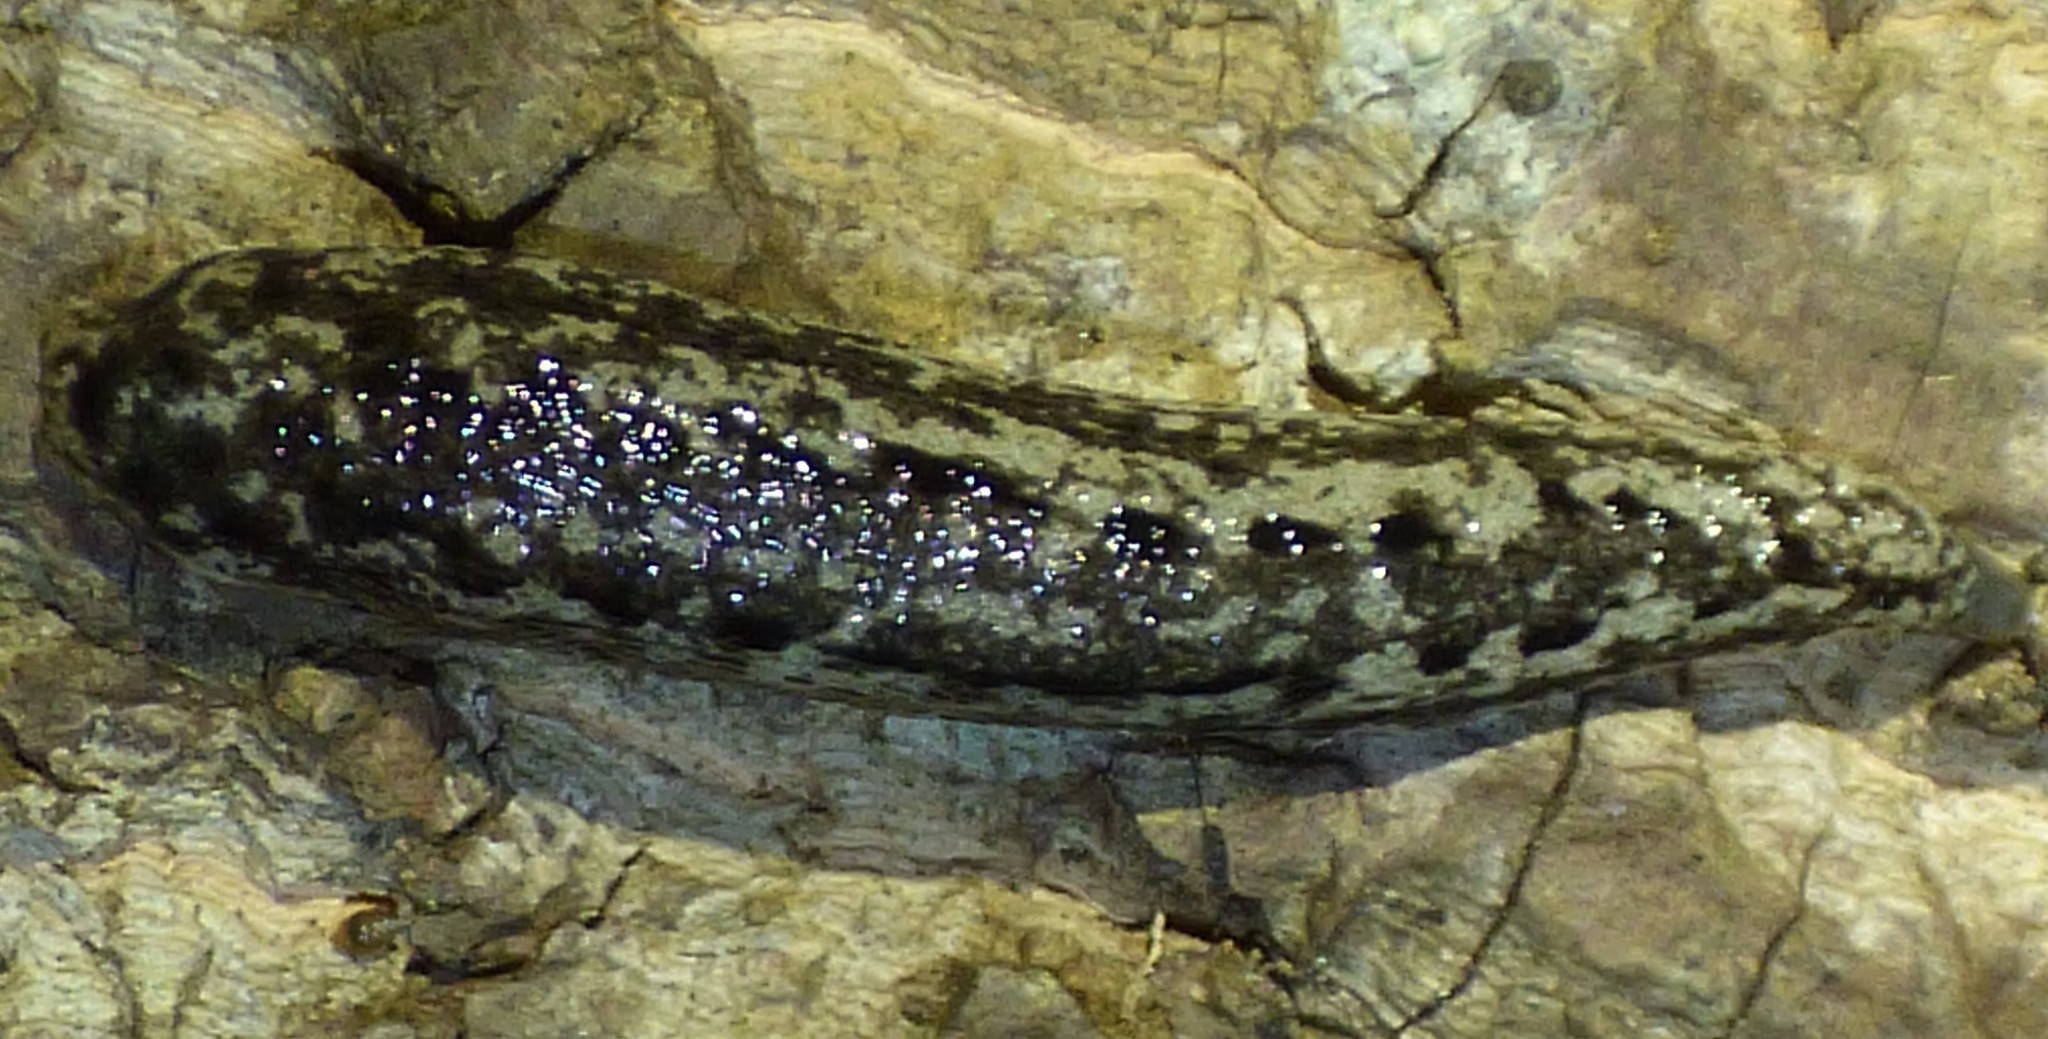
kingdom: Animalia
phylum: Mollusca
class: Gastropoda
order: Stylommatophora
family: Philomycidae
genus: Philomycus
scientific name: Philomycus carolinianus
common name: Carolina mantleslug
